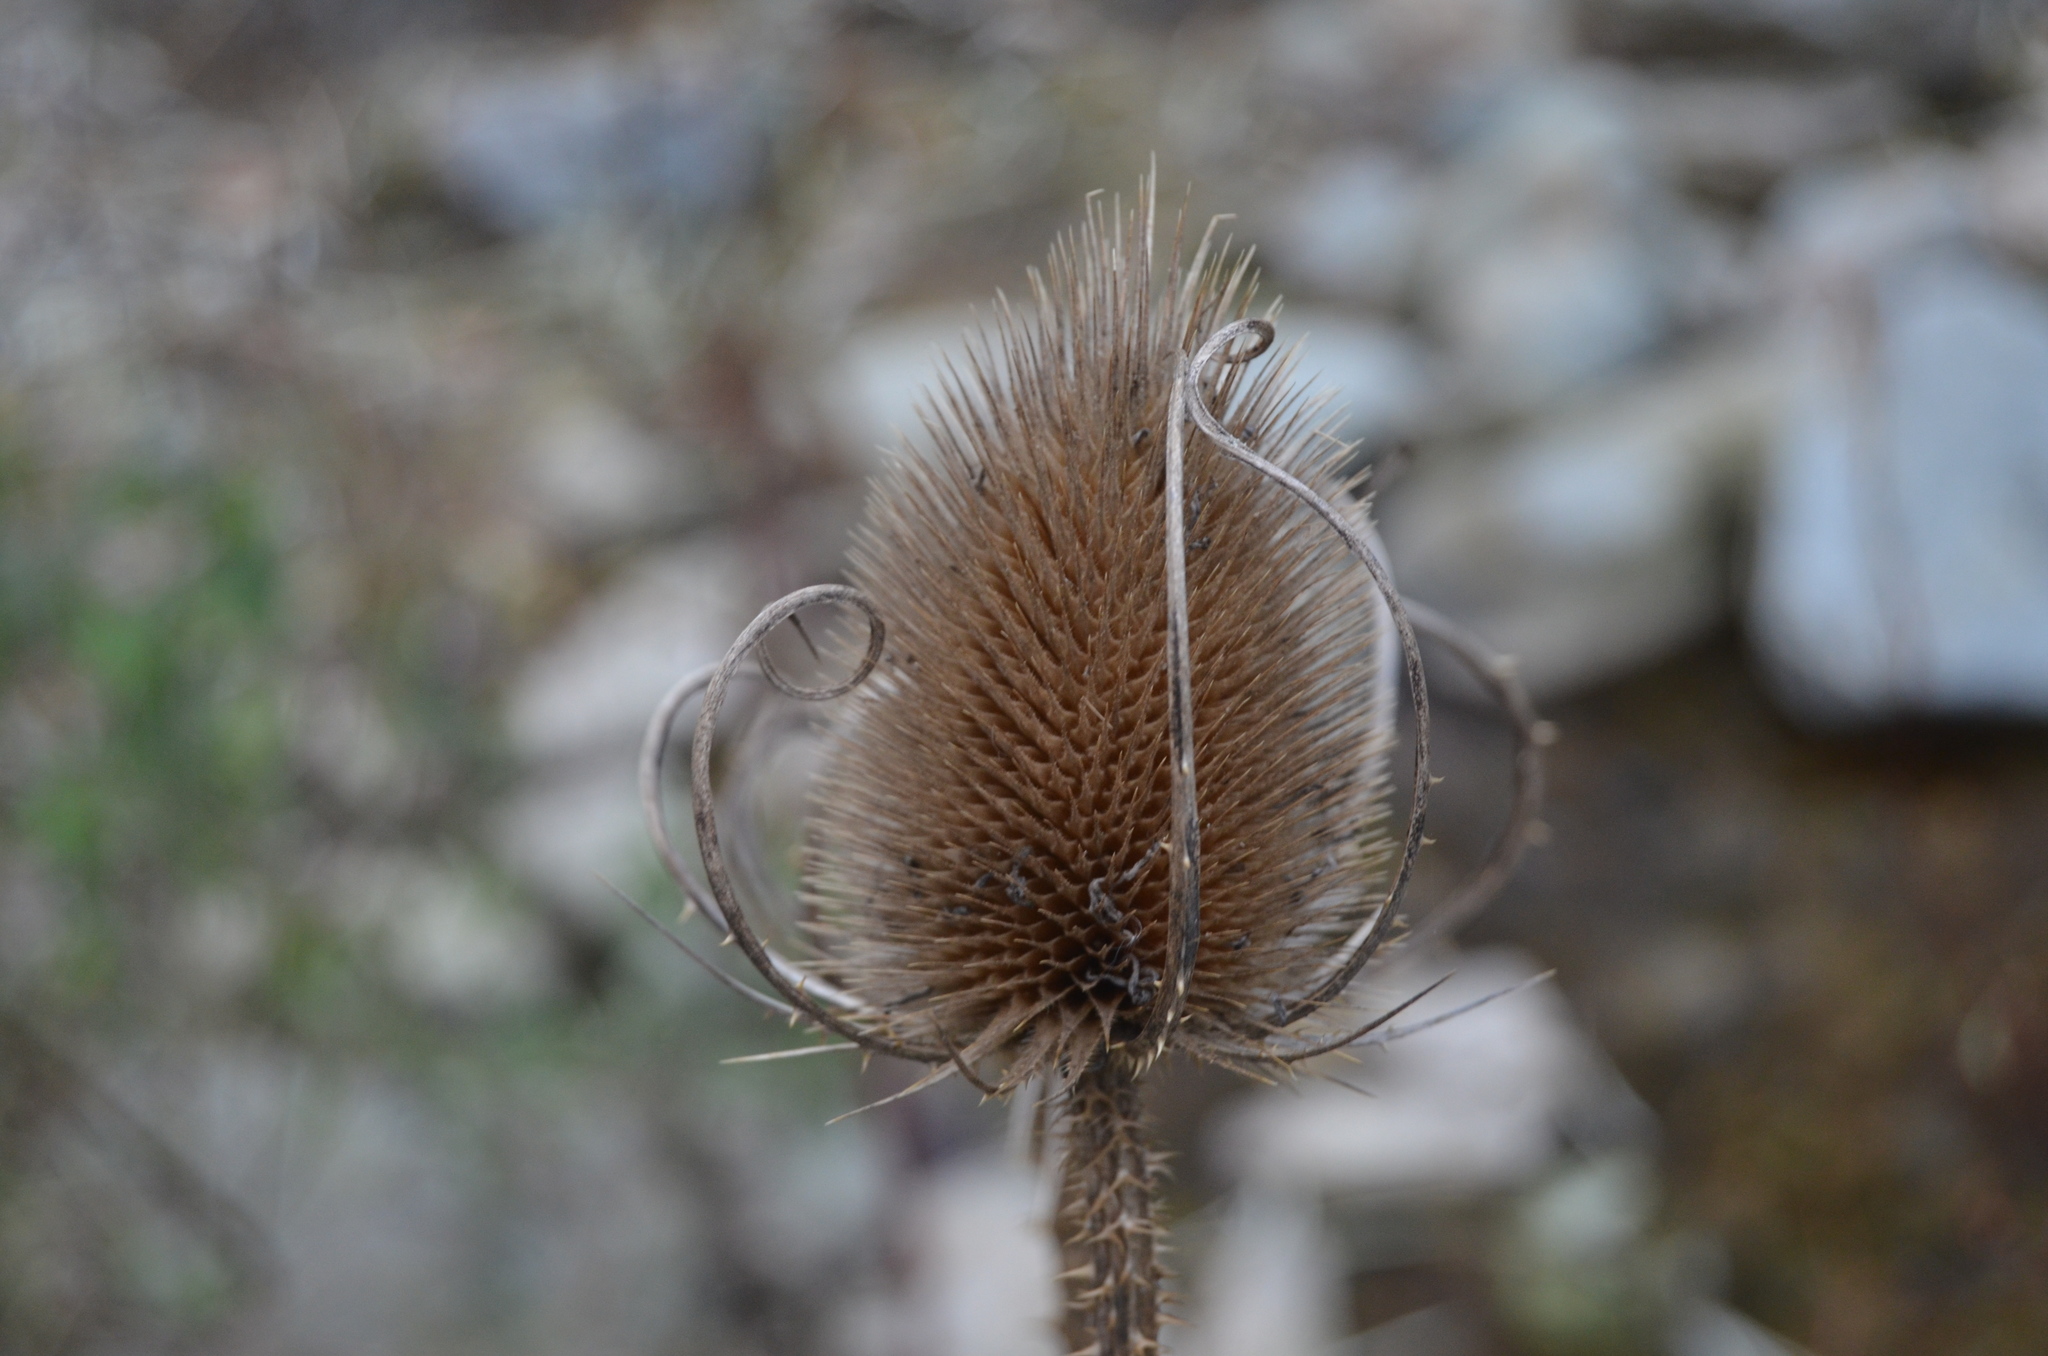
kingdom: Plantae
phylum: Tracheophyta
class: Magnoliopsida
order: Dipsacales
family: Caprifoliaceae
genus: Dipsacus
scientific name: Dipsacus fullonum
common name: Teasel
